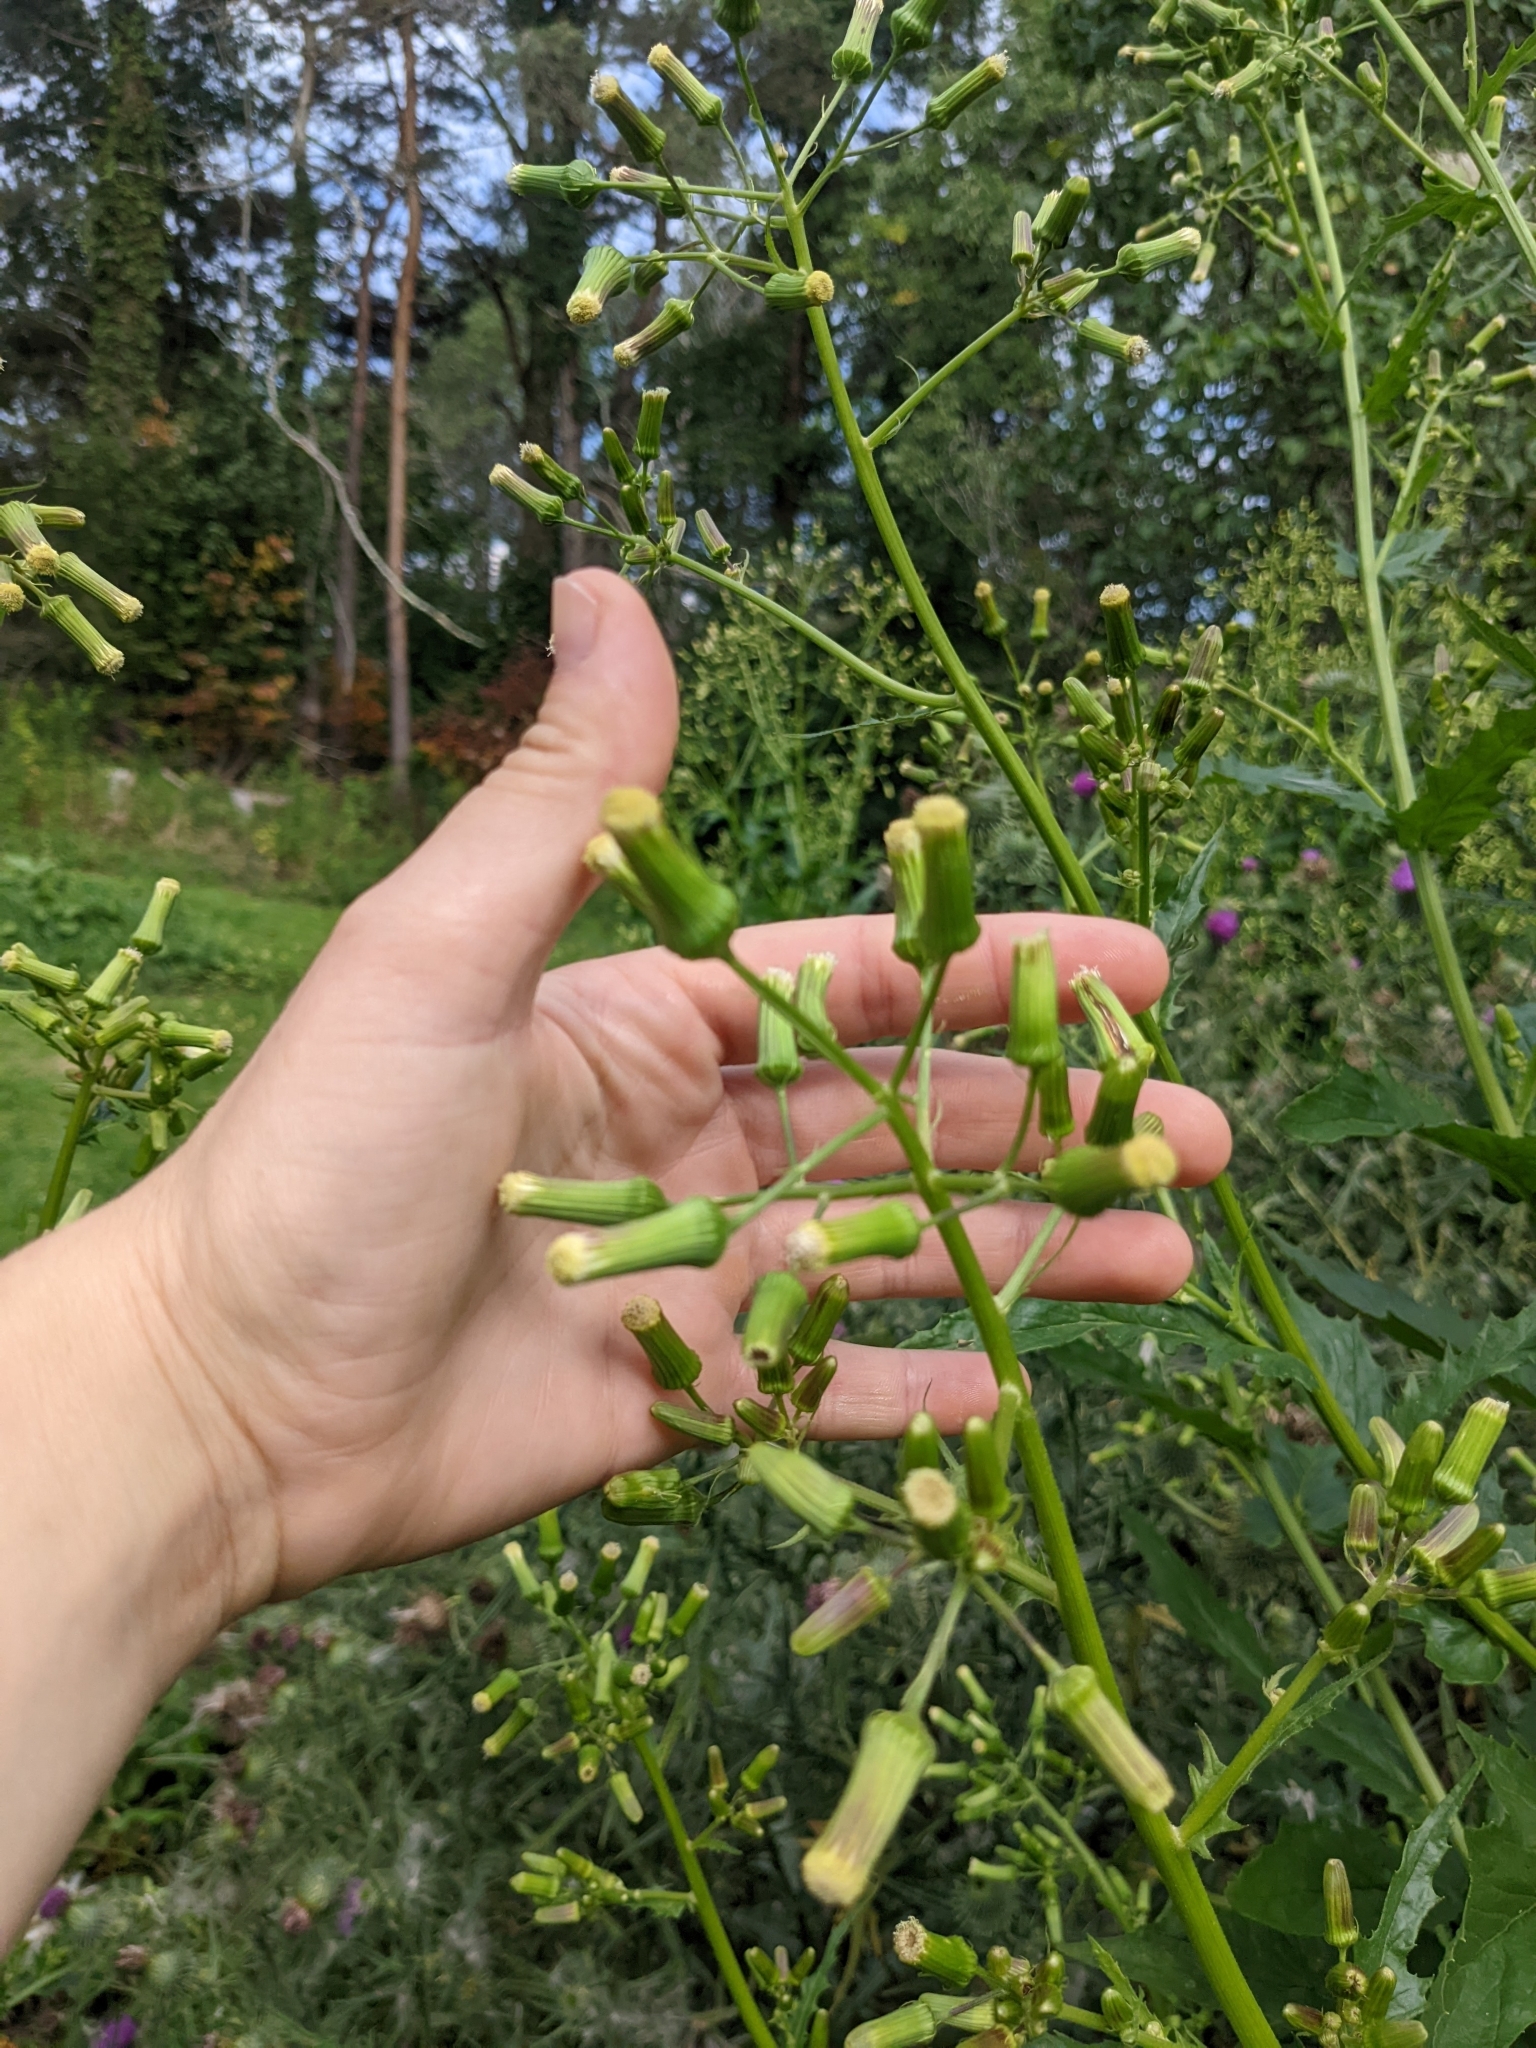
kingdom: Plantae
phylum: Tracheophyta
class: Magnoliopsida
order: Asterales
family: Asteraceae
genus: Erechtites
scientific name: Erechtites hieraciifolius
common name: American burnweed
